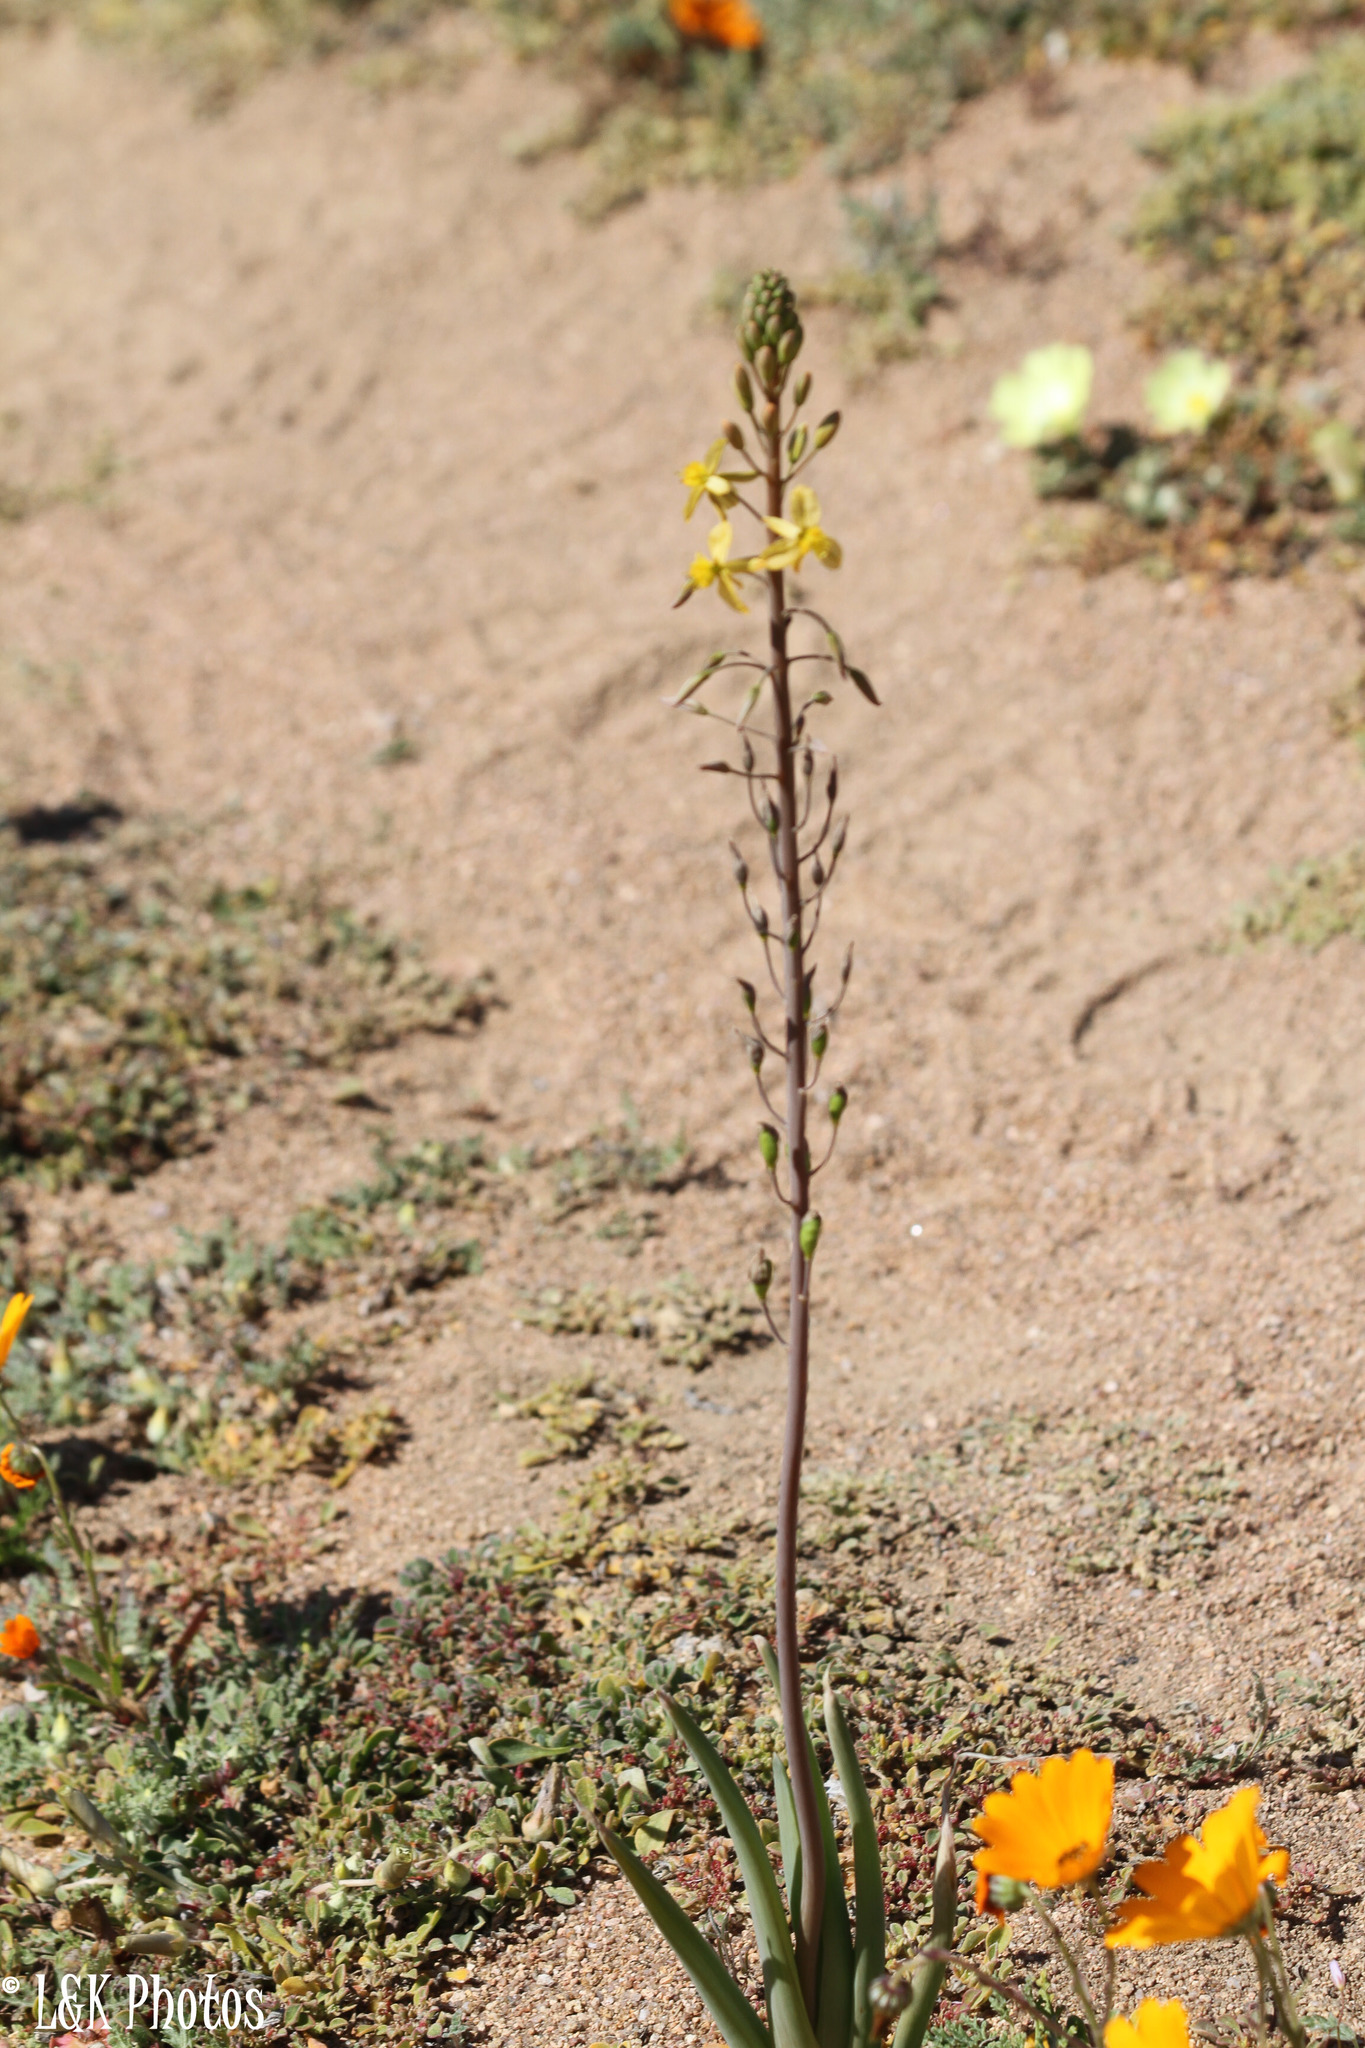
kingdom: Plantae
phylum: Tracheophyta
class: Liliopsida
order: Asparagales
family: Asphodelaceae
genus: Bulbine
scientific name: Bulbine praemorsa
